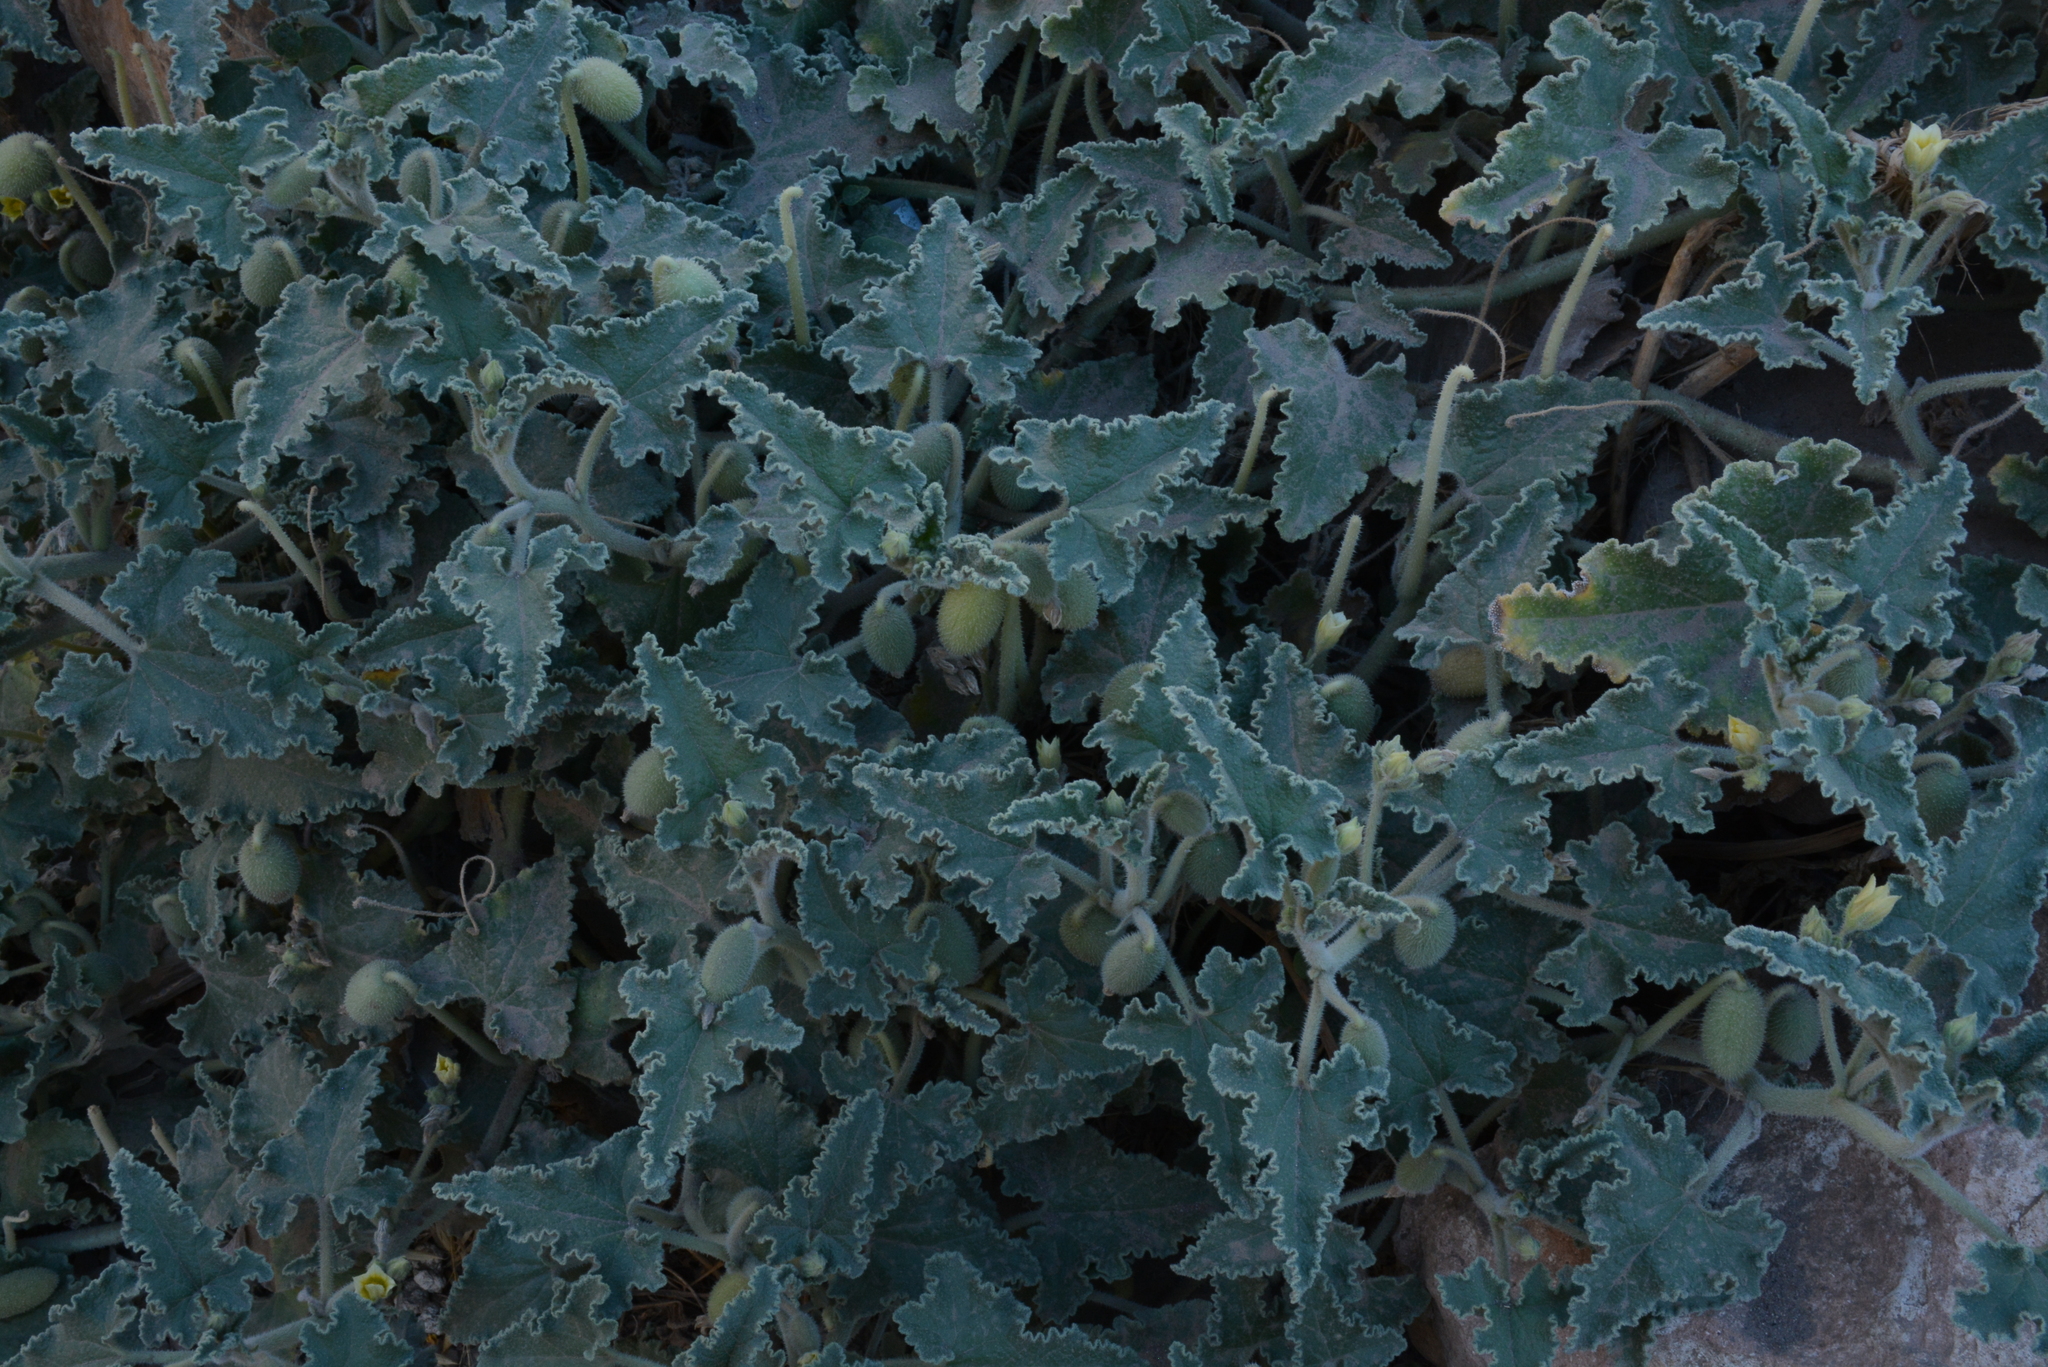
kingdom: Plantae
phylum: Tracheophyta
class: Magnoliopsida
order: Cucurbitales
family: Cucurbitaceae
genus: Ecballium
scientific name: Ecballium elaterium
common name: Squirting cucumber
